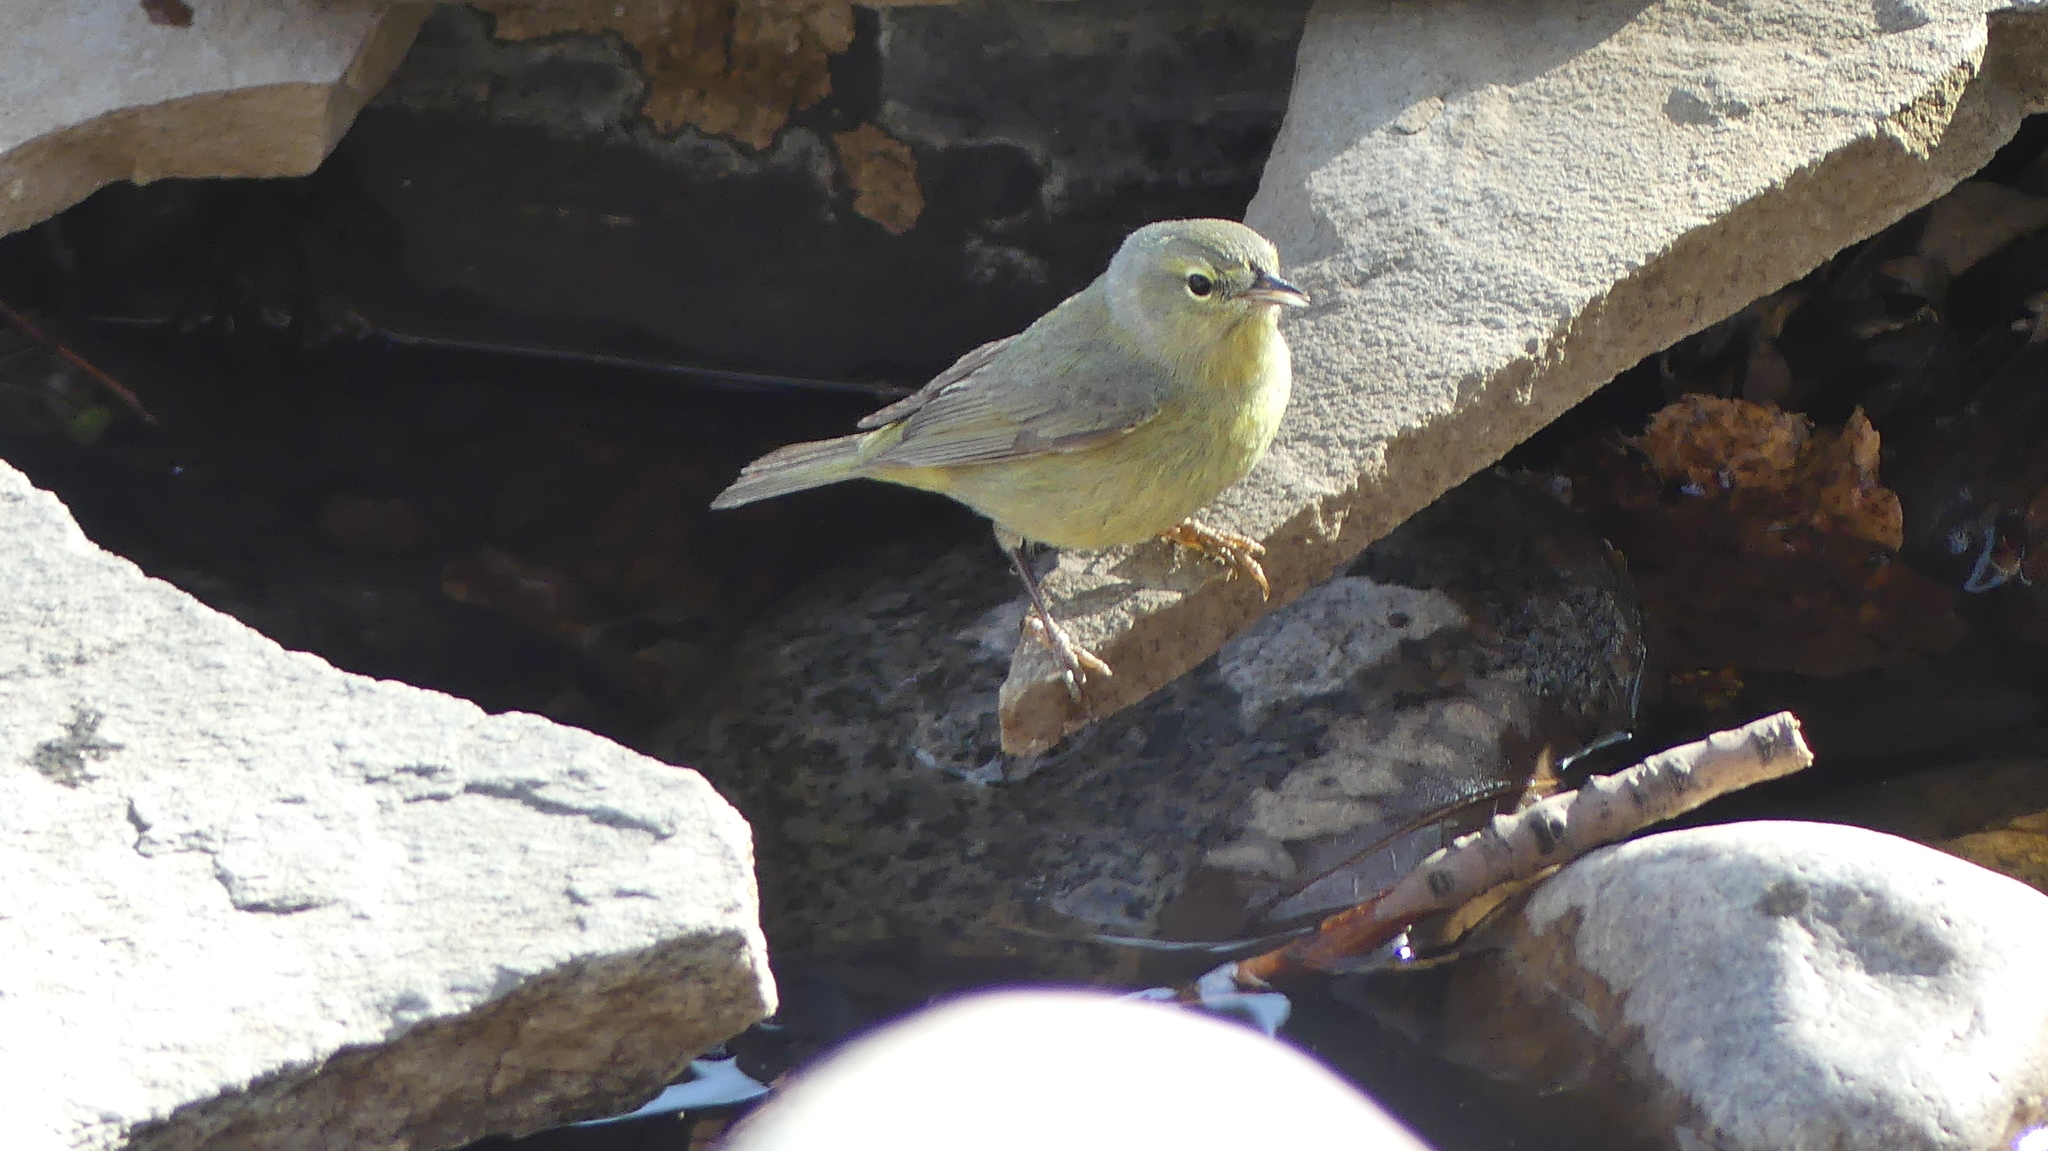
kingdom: Animalia
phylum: Chordata
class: Aves
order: Passeriformes
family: Parulidae
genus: Leiothlypis
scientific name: Leiothlypis celata
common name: Orange-crowned warbler
